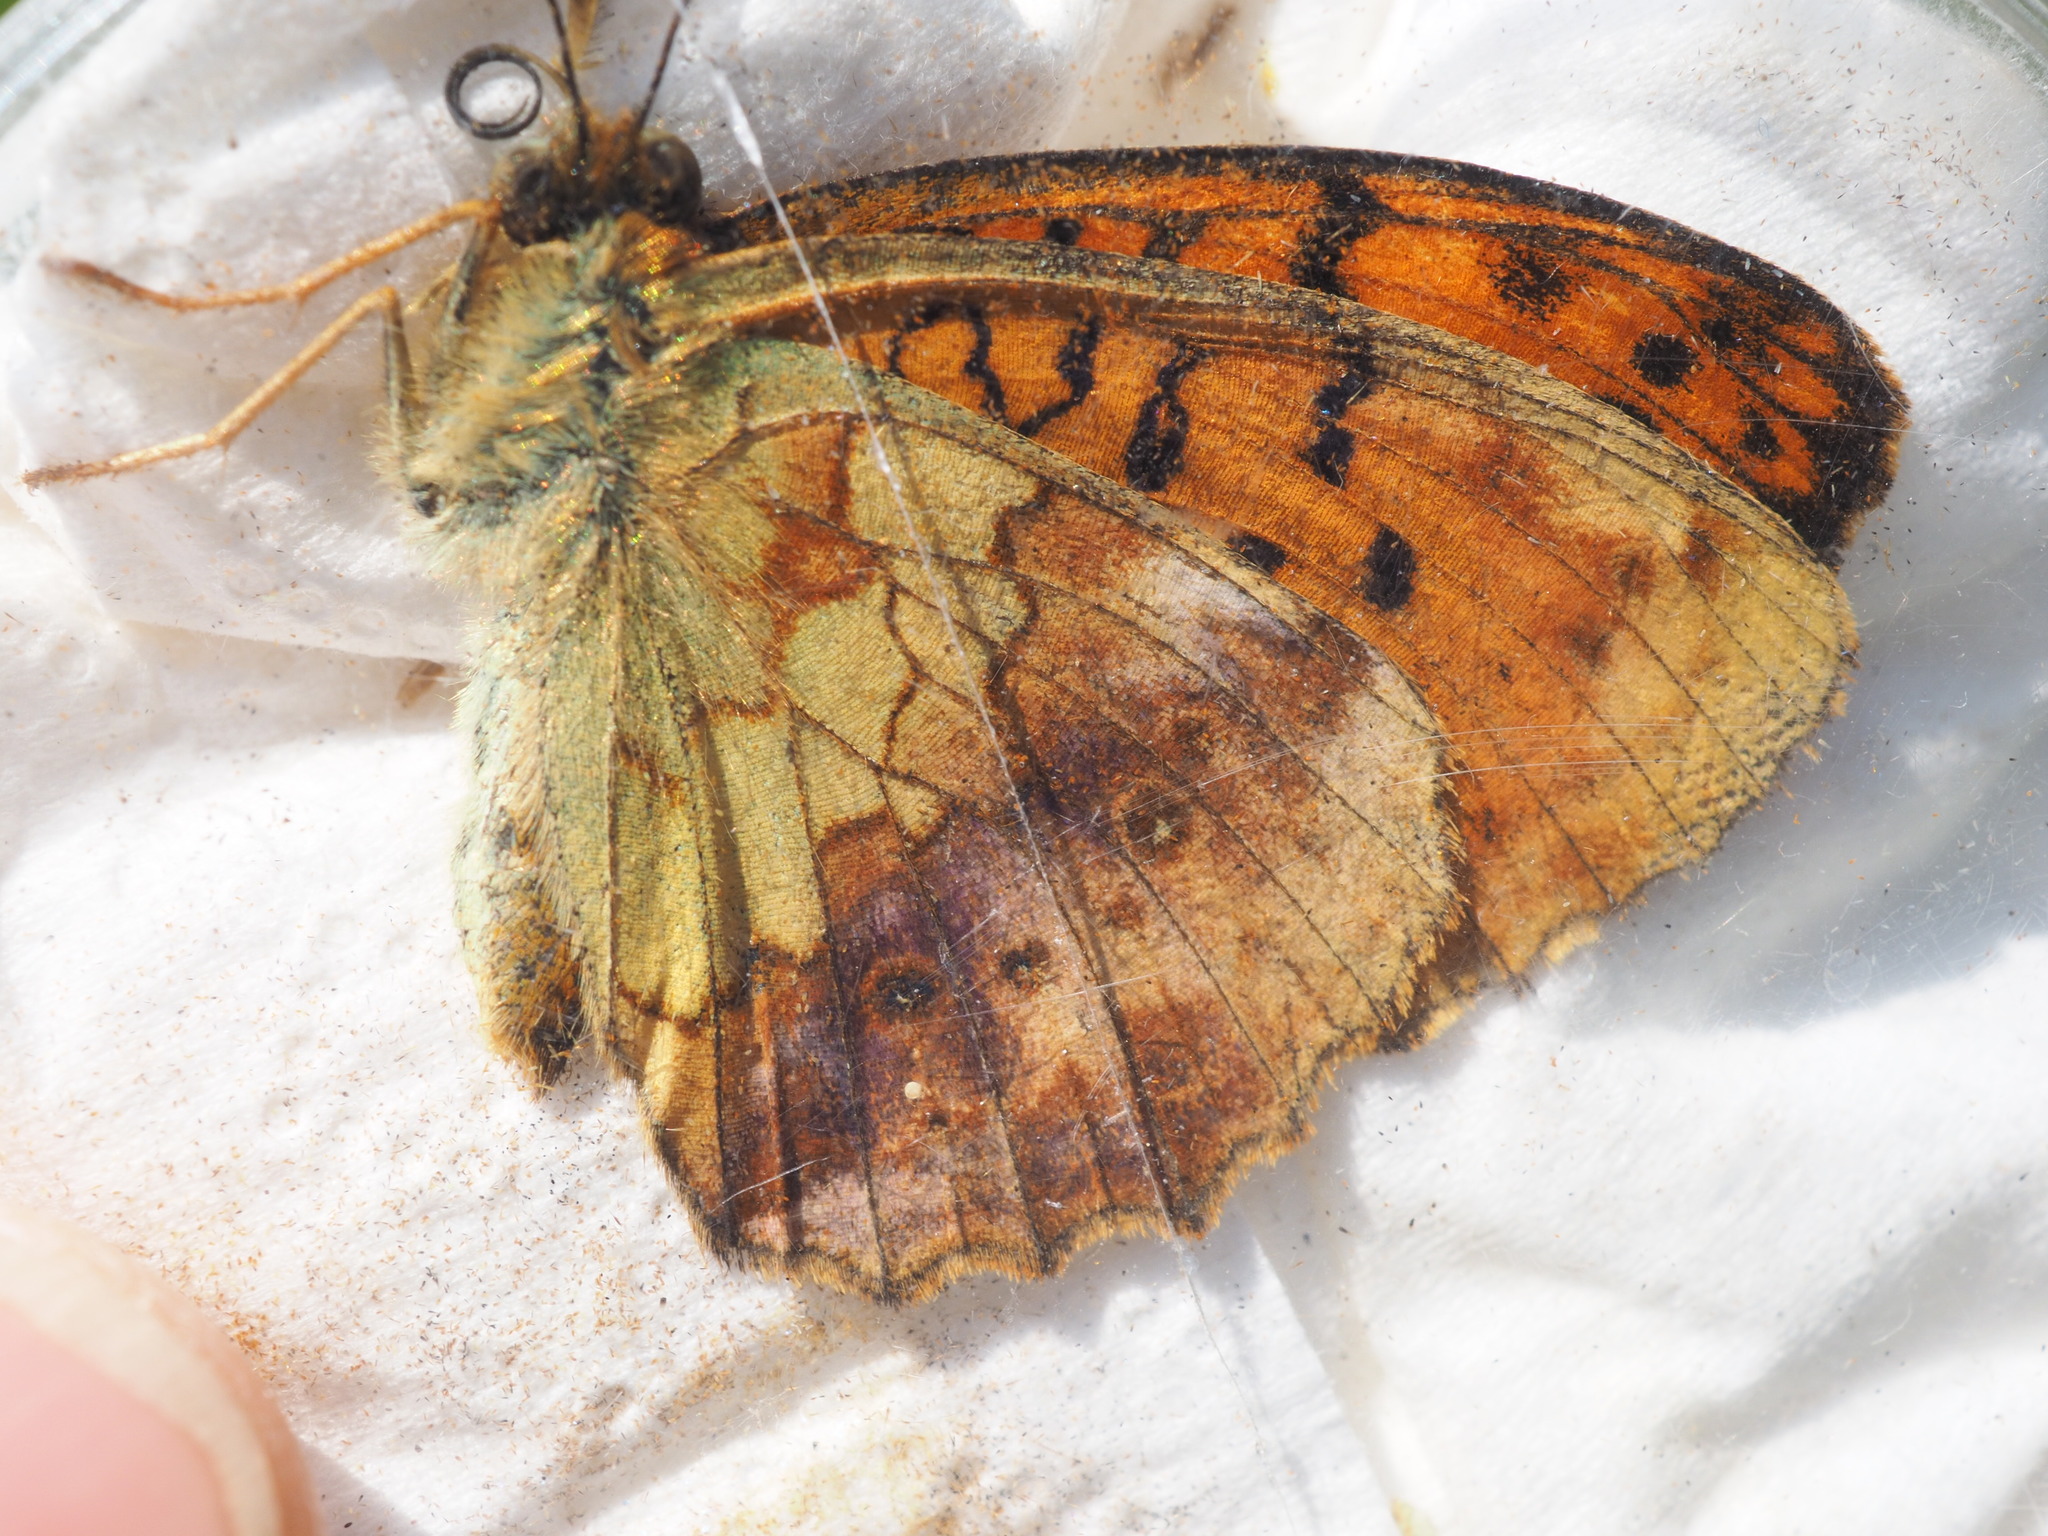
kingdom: Animalia
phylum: Arthropoda
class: Insecta
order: Lepidoptera
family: Nymphalidae
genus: Brenthis
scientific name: Brenthis daphne
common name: Marbled fritillary
